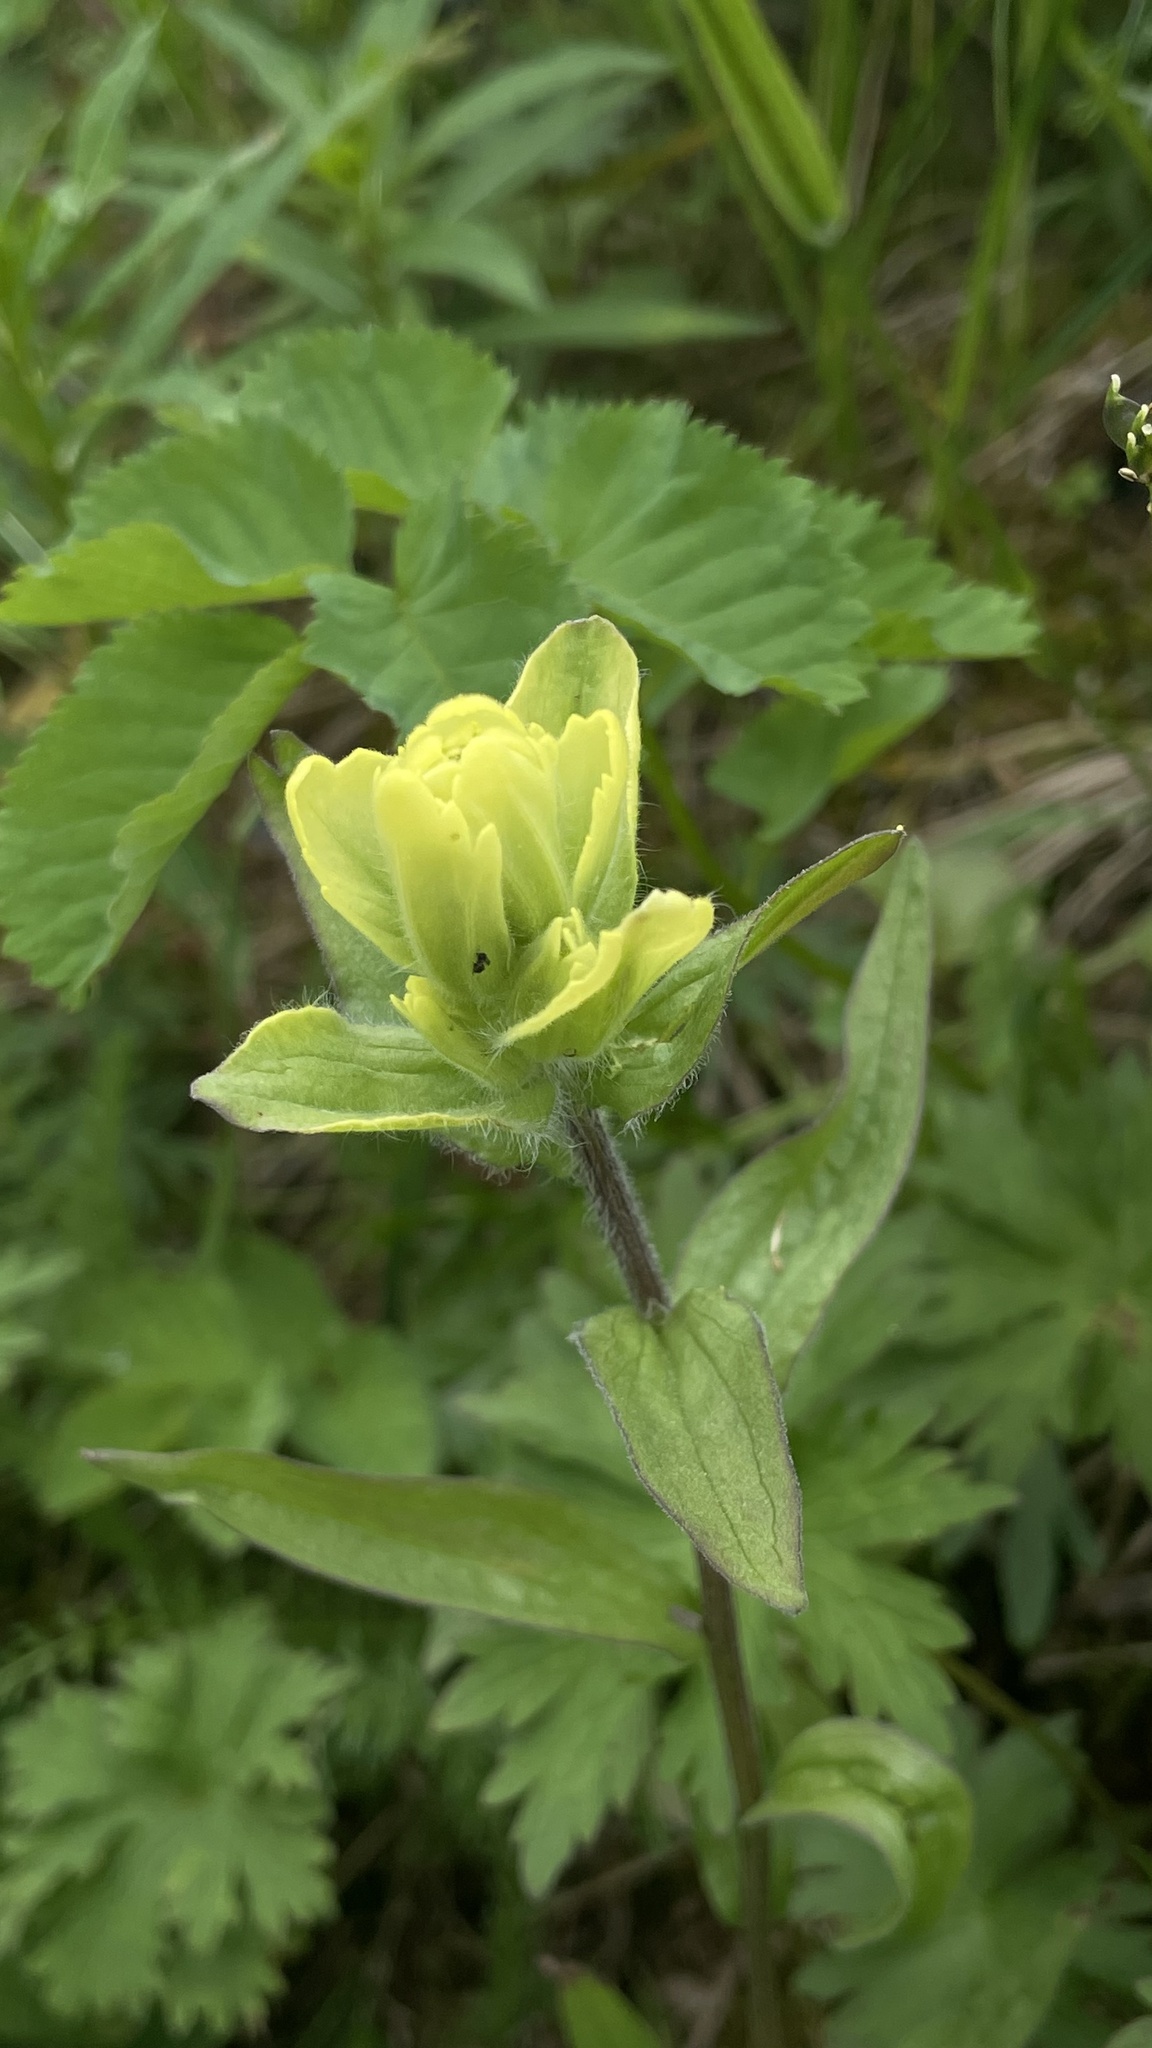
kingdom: Plantae
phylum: Tracheophyta
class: Magnoliopsida
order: Lamiales
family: Orobanchaceae
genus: Castilleja
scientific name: Castilleja unalaschcensis
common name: Unalaska paintbrush
